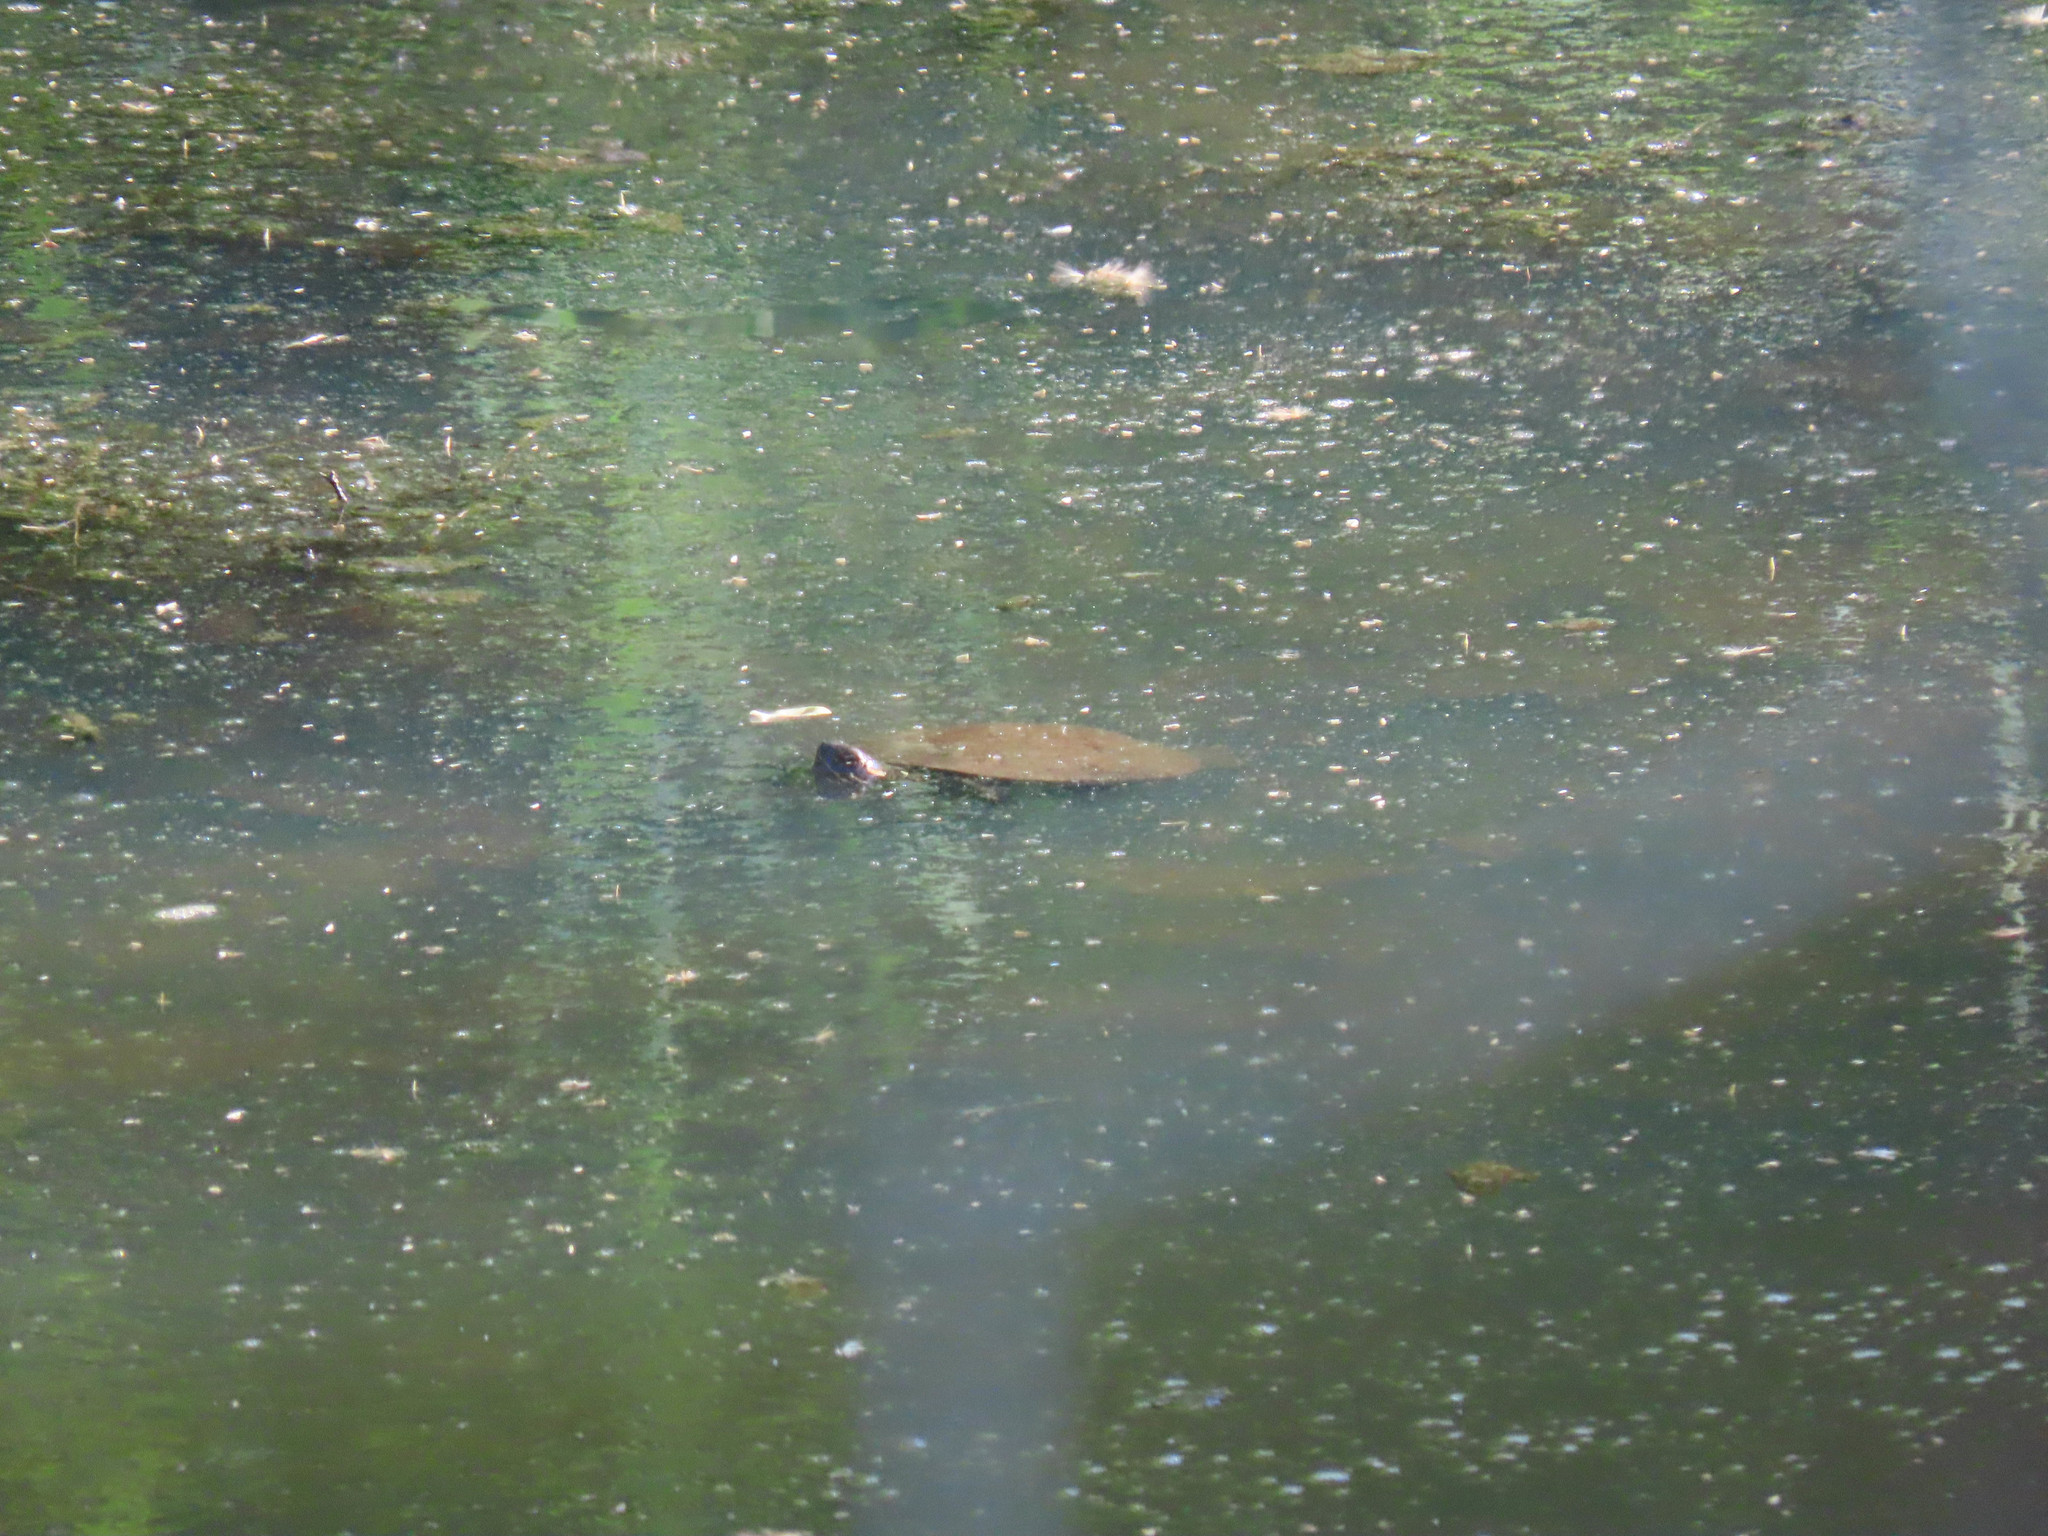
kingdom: Animalia
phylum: Chordata
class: Testudines
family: Emydidae
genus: Chrysemys
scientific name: Chrysemys picta
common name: Painted turtle
